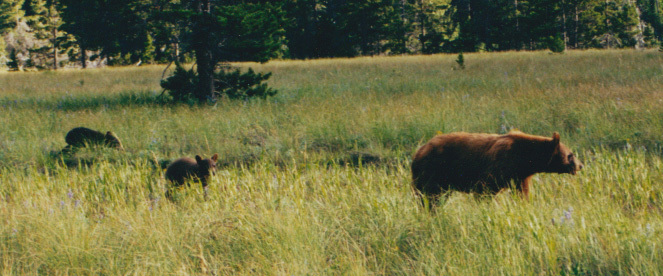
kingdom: Animalia
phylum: Chordata
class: Mammalia
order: Carnivora
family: Ursidae
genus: Ursus
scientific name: Ursus americanus
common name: American black bear
